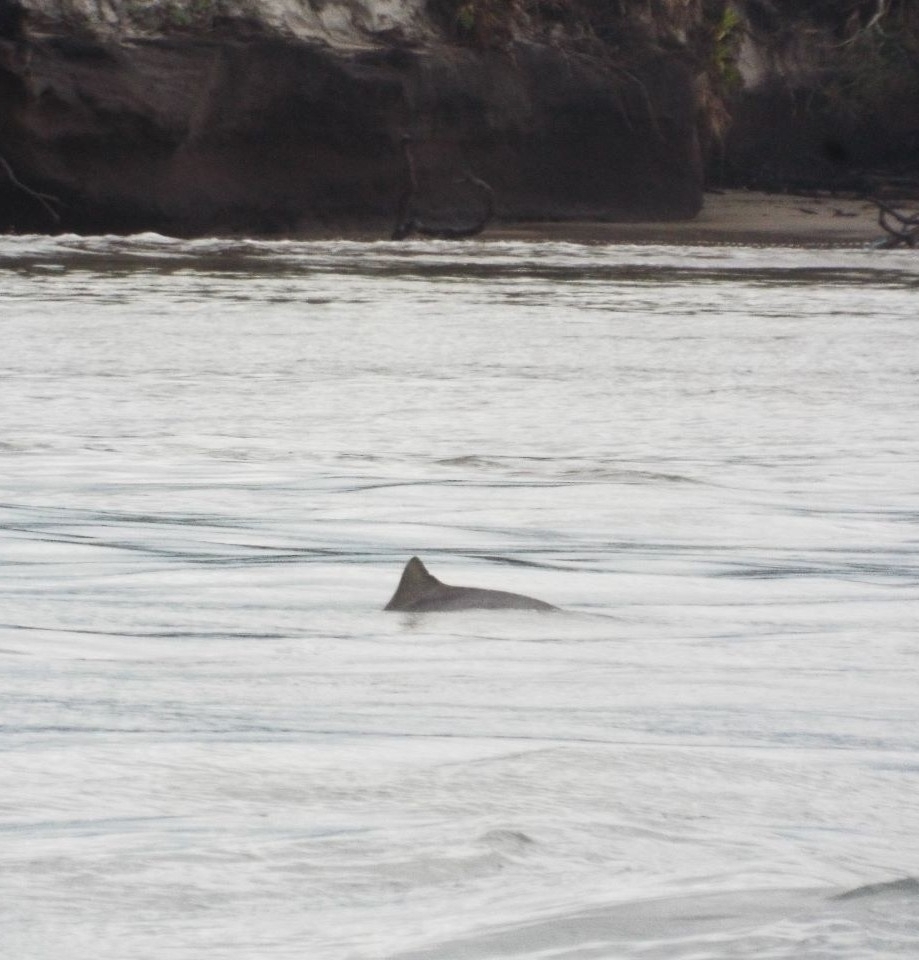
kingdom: Animalia
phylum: Chordata
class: Mammalia
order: Cetacea
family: Delphinidae
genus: Sotalia
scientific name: Sotalia guianensis
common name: Guiana dolphin
